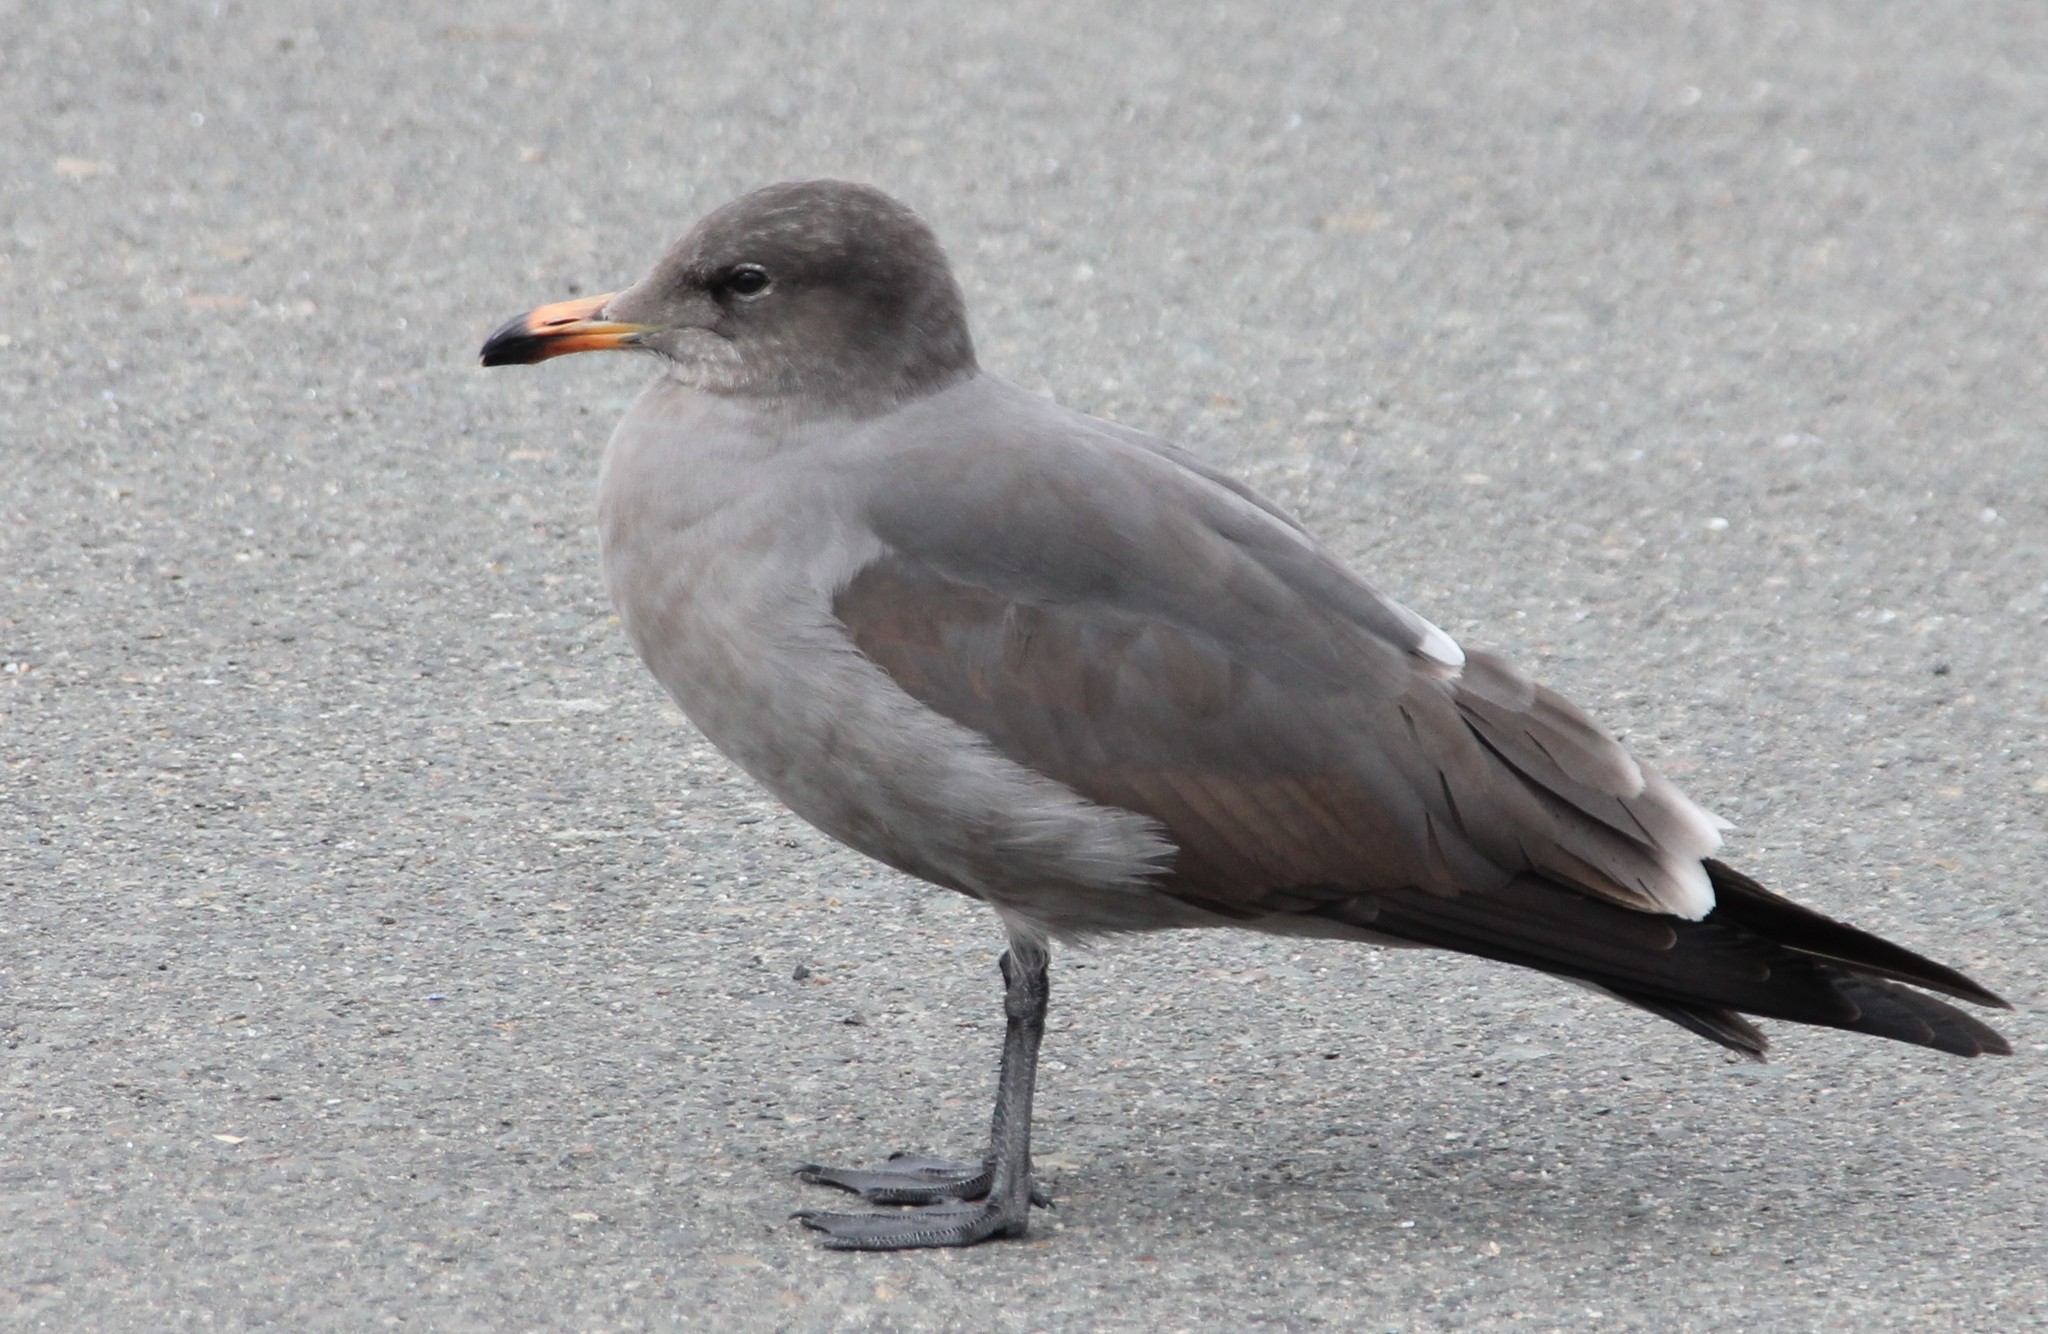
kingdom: Animalia
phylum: Chordata
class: Aves
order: Charadriiformes
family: Laridae
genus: Larus
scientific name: Larus heermanni
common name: Heermann's gull
